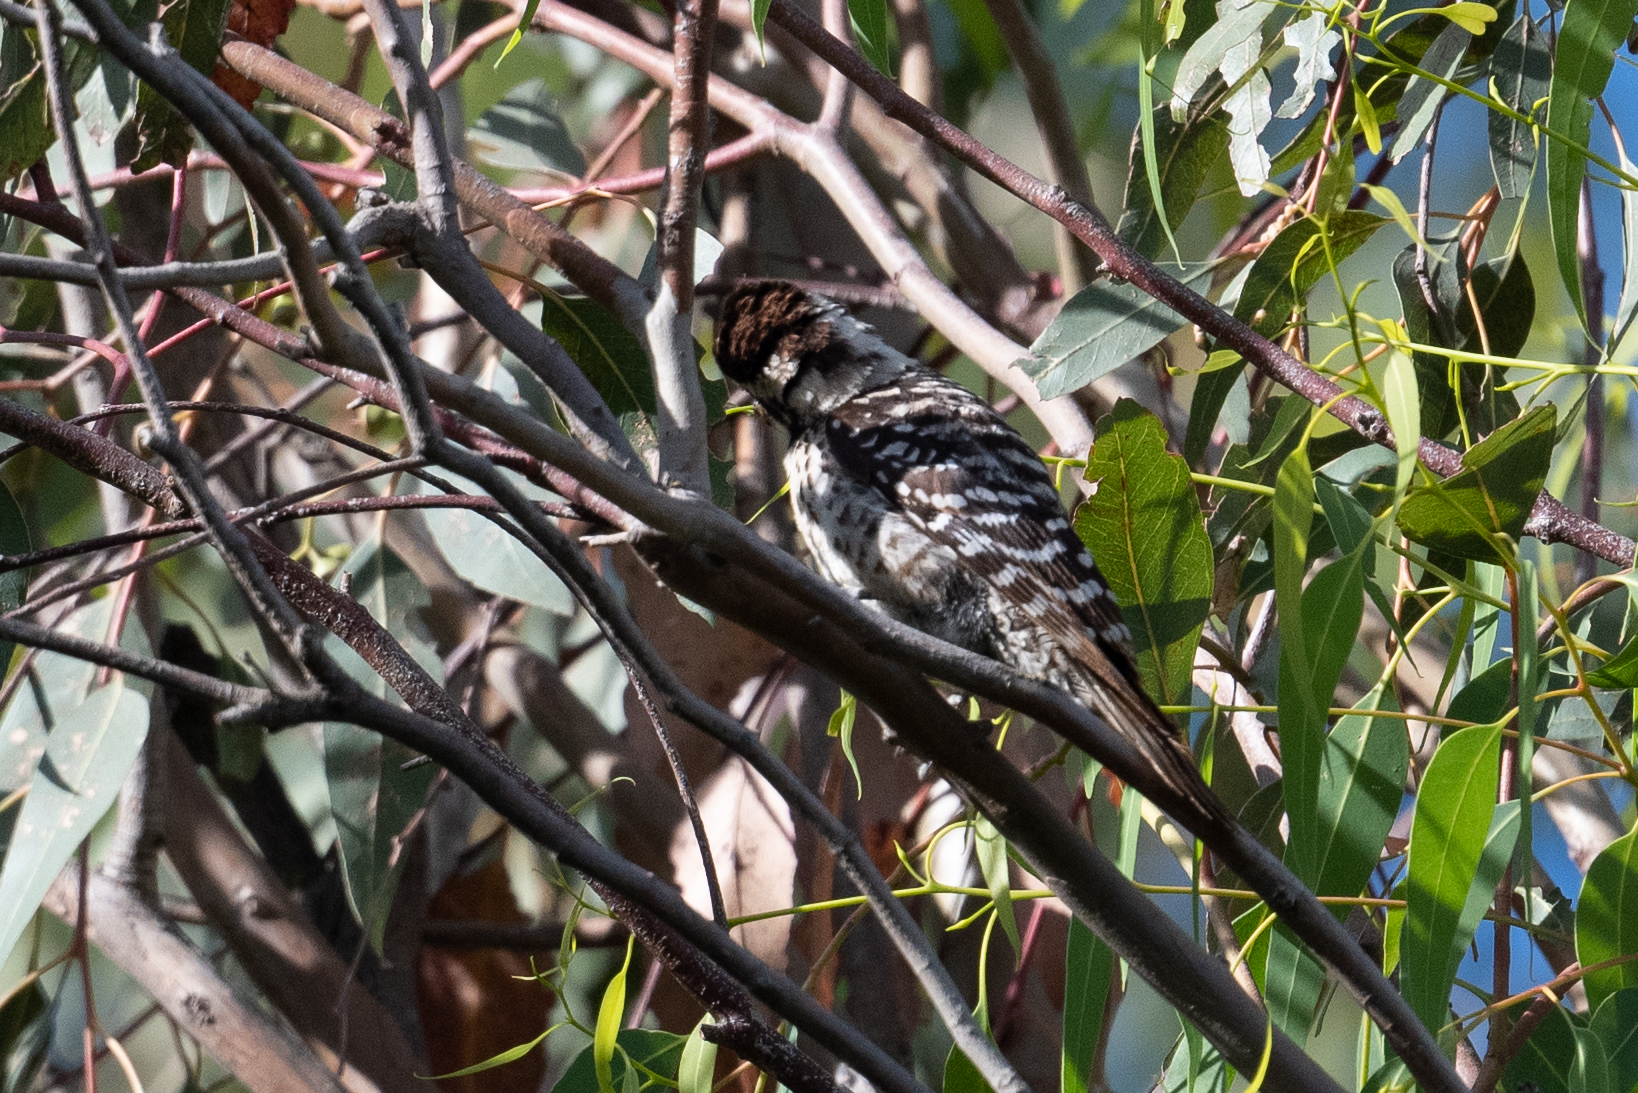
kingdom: Animalia
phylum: Chordata
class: Aves
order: Piciformes
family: Picidae
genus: Dryobates
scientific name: Dryobates nuttallii
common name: Nuttall's woodpecker
